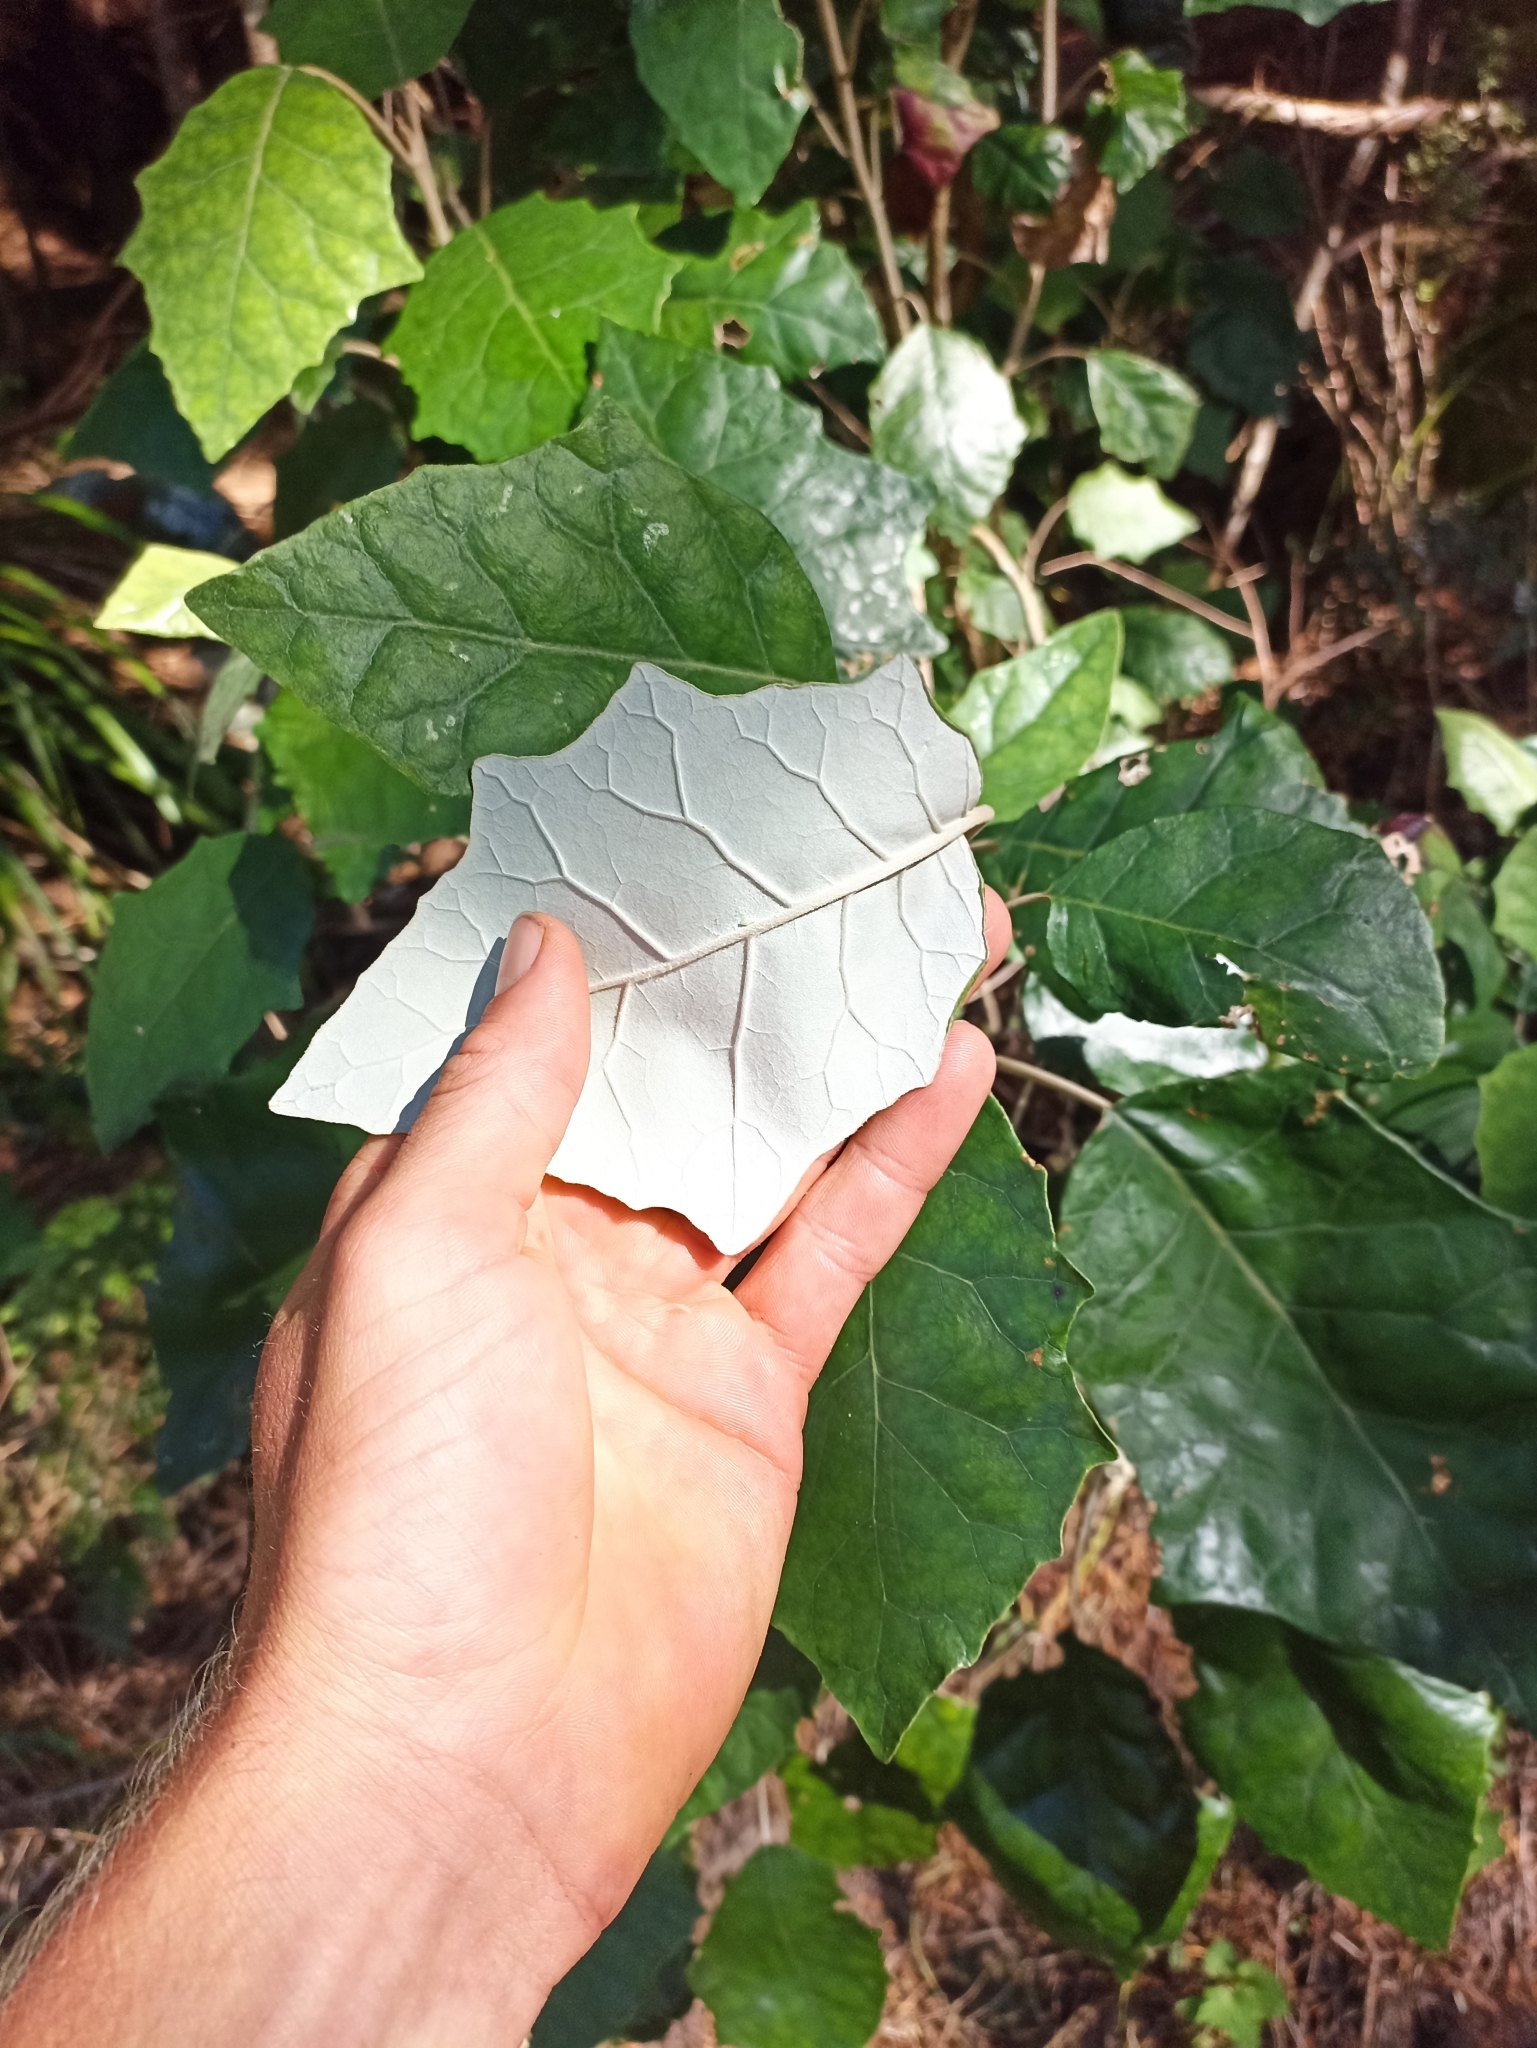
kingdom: Plantae
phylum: Tracheophyta
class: Magnoliopsida
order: Asterales
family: Asteraceae
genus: Brachyglottis
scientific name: Brachyglottis repanda
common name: Hedge ragwort
